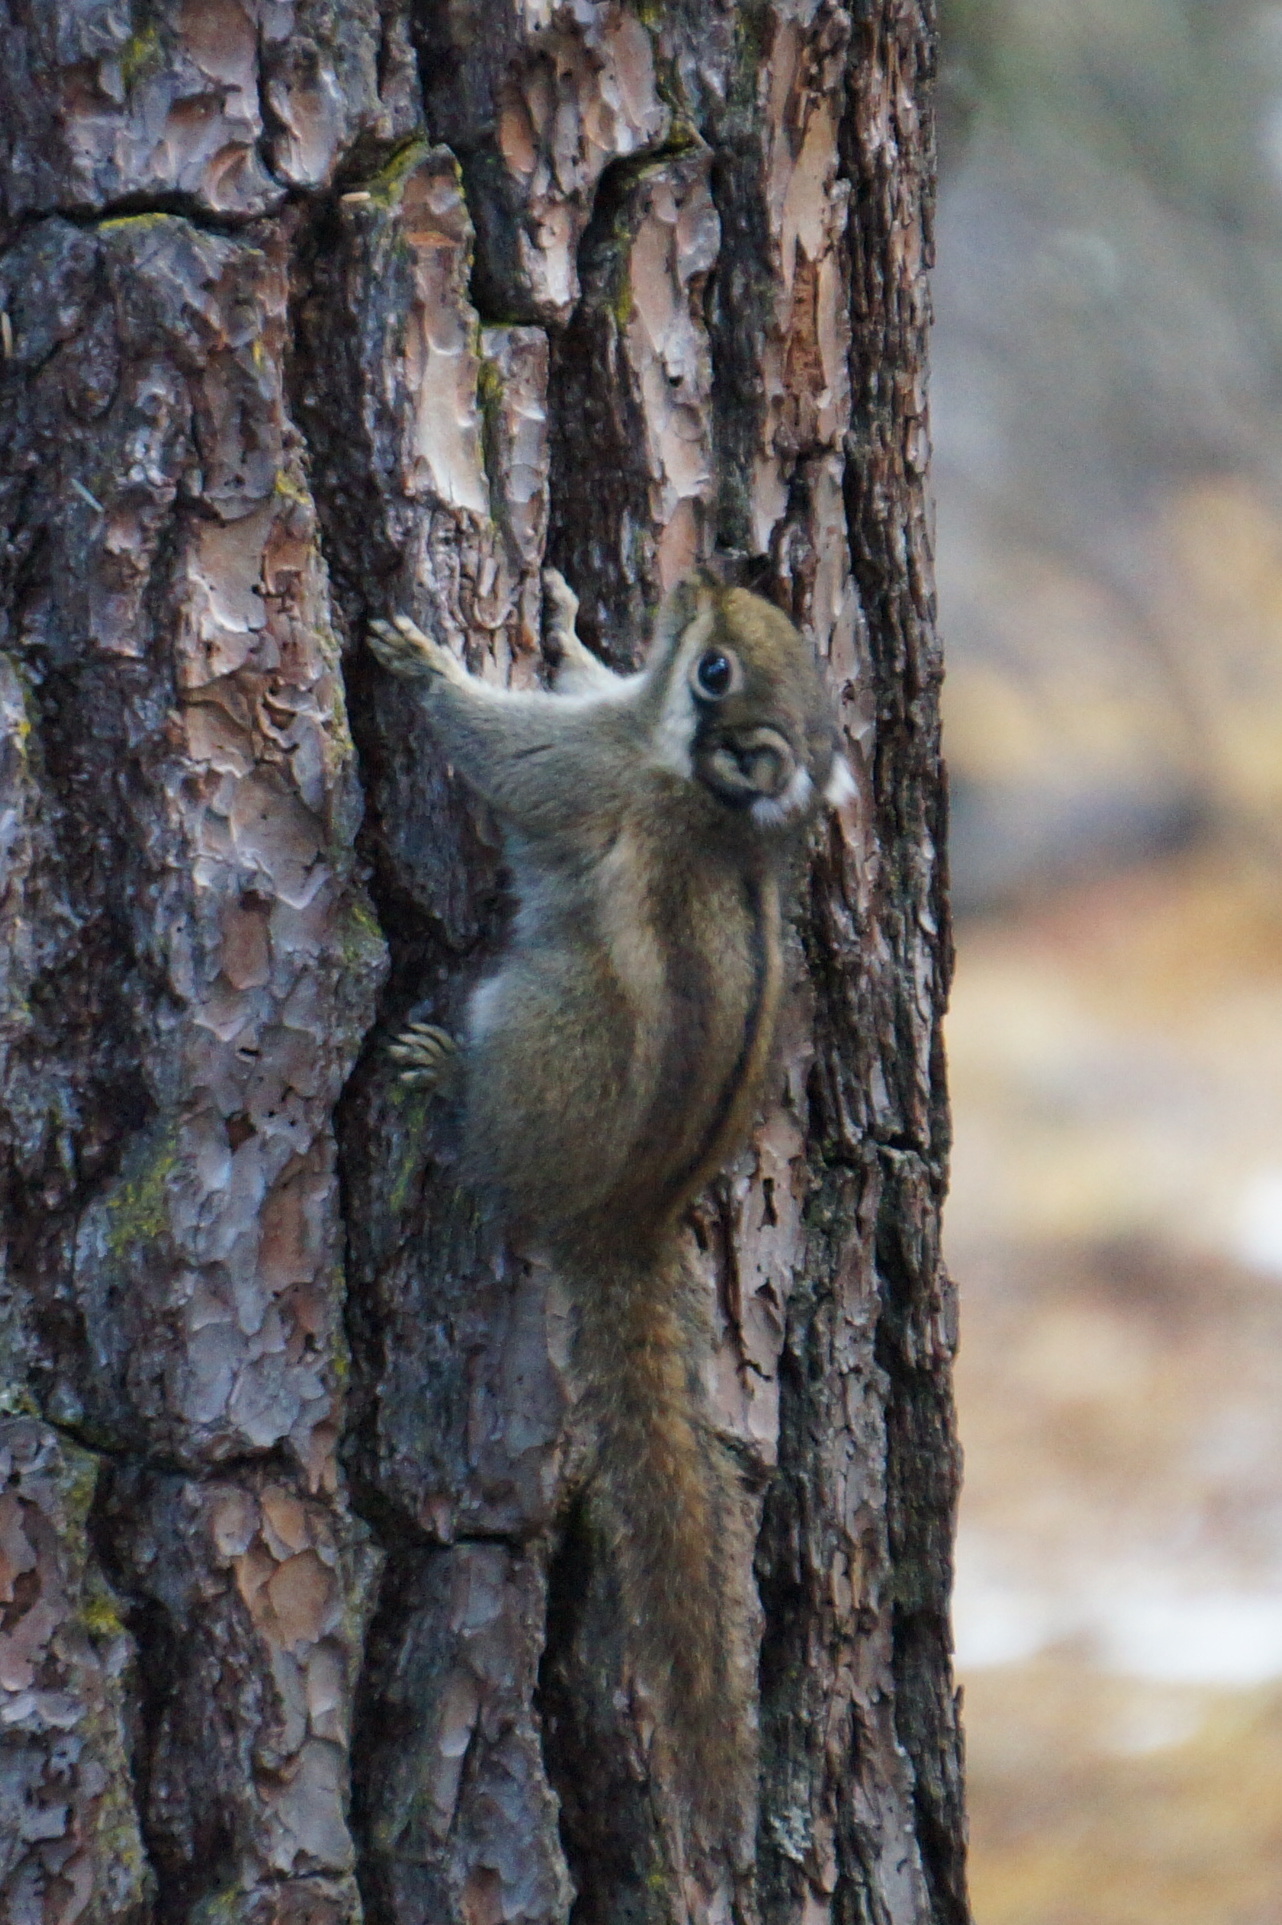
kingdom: Animalia
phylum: Chordata
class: Mammalia
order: Rodentia
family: Sciuridae
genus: Tamiops
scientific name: Tamiops swinhoei
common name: Swinhoe's striped squirrel
